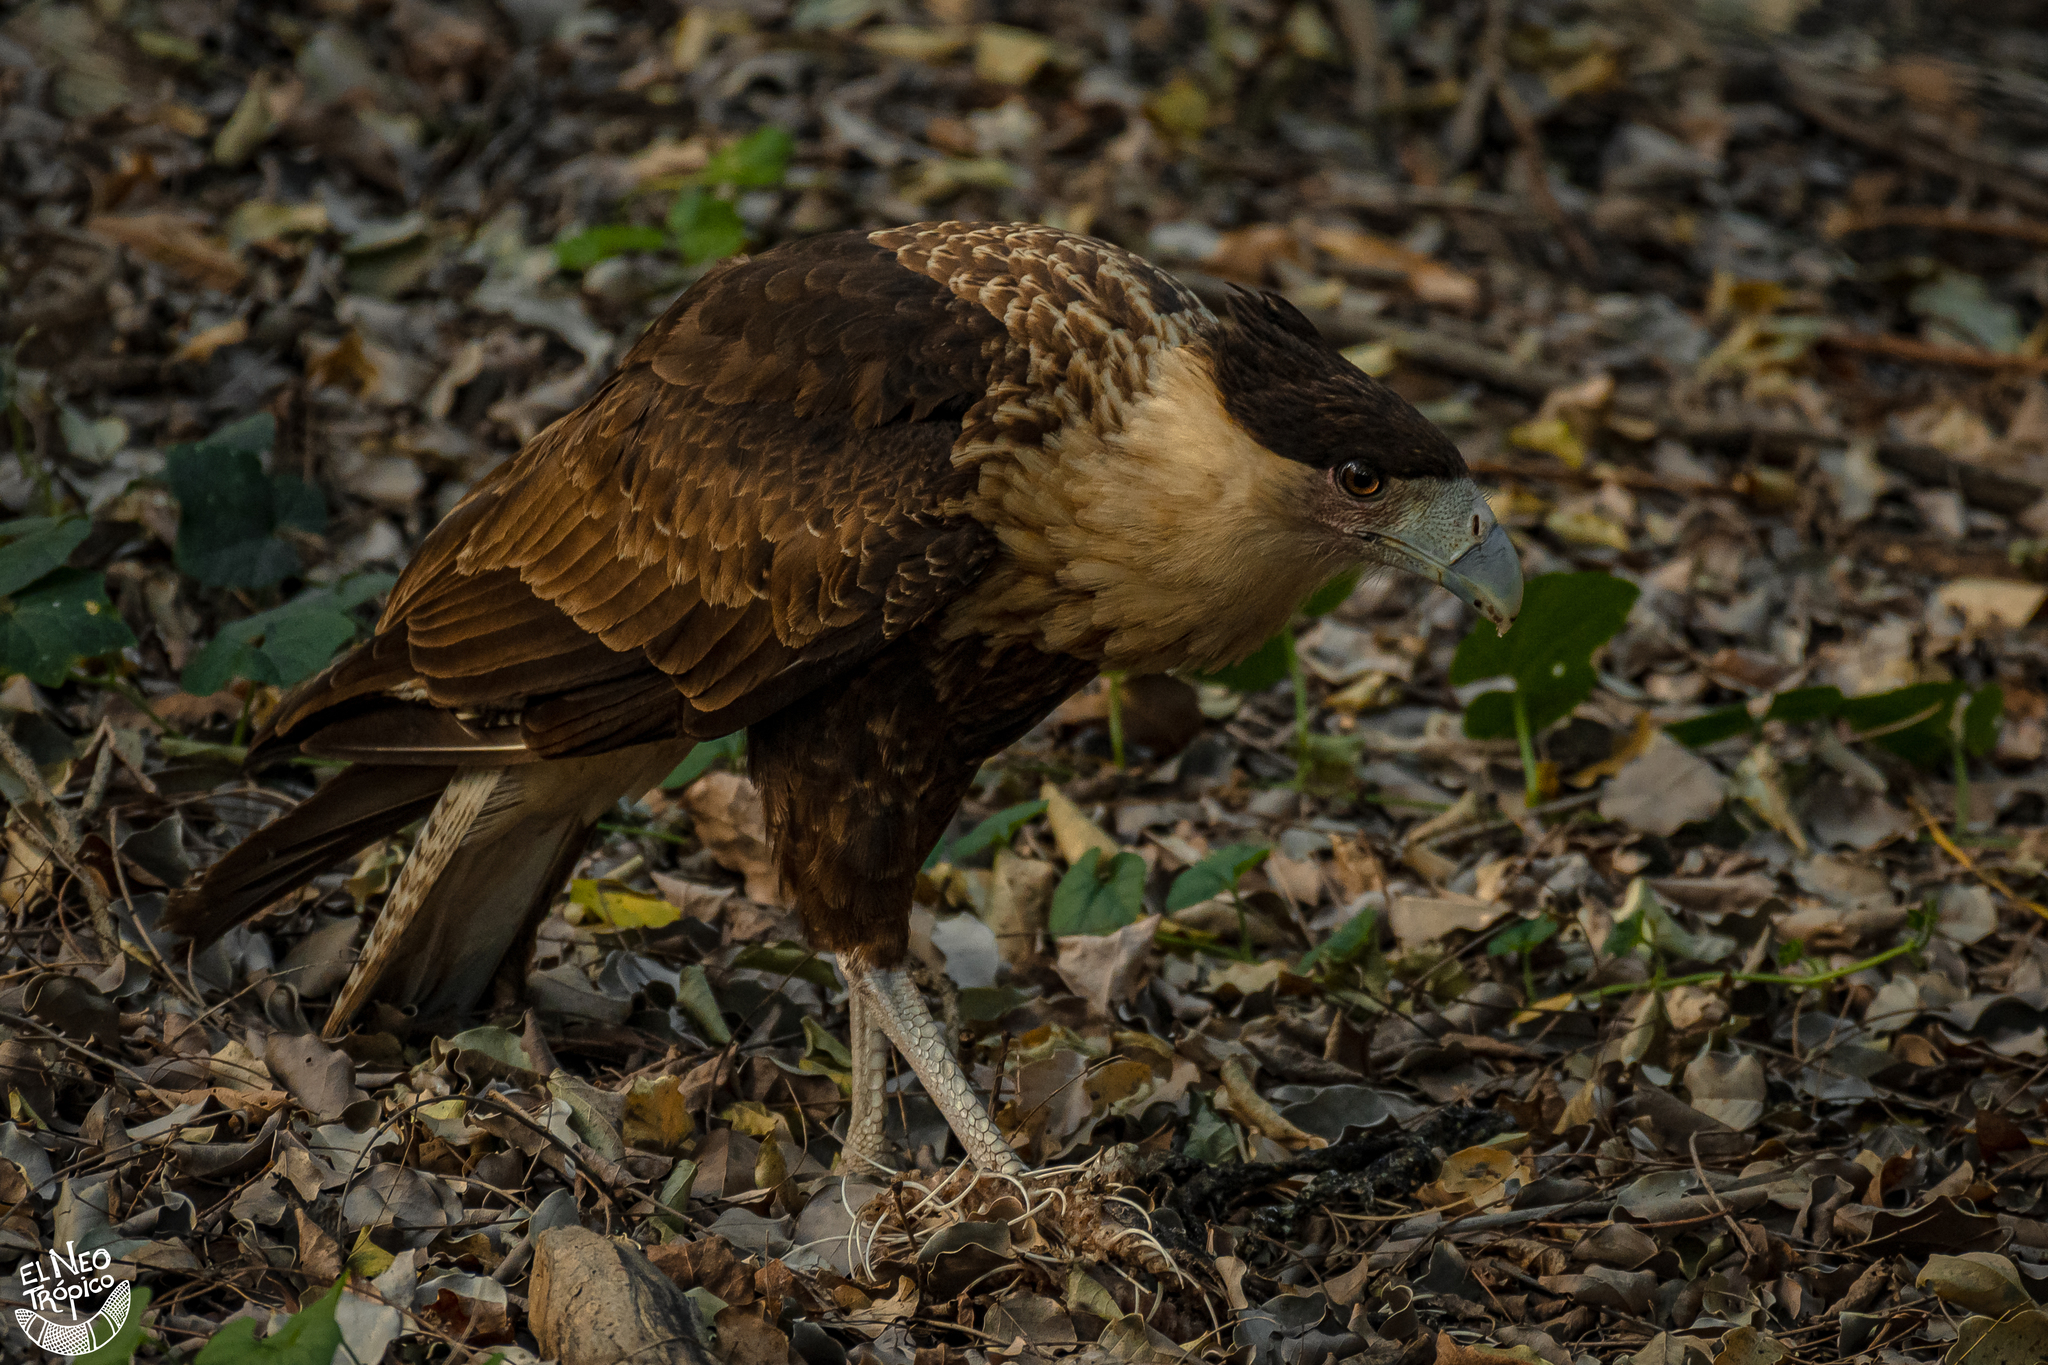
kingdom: Animalia
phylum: Chordata
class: Aves
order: Falconiformes
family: Falconidae
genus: Caracara
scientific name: Caracara plancus
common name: Southern caracara
